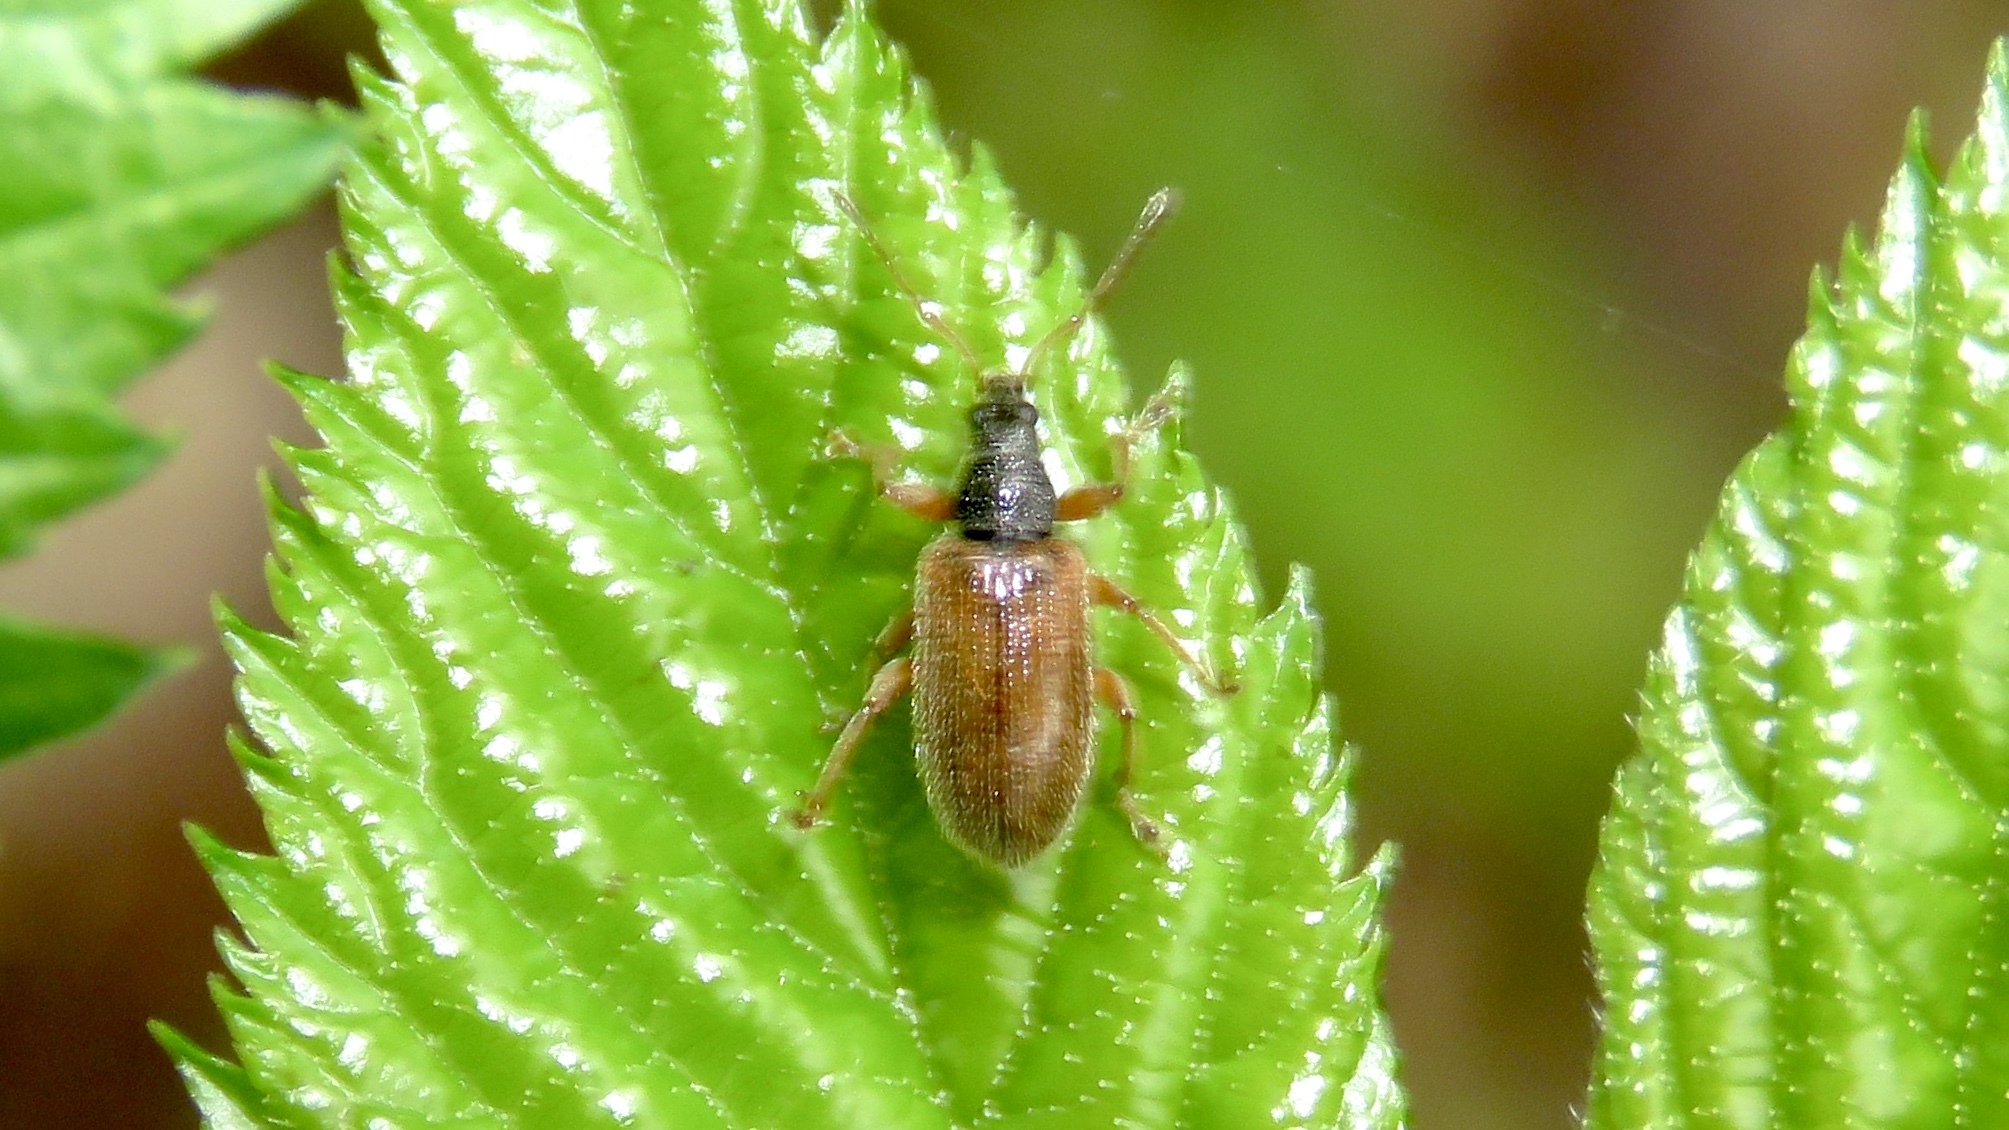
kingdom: Animalia
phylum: Arthropoda
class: Insecta
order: Coleoptera
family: Curculionidae
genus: Phyllobius
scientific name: Phyllobius oblongus
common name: Brown leaf weevil
